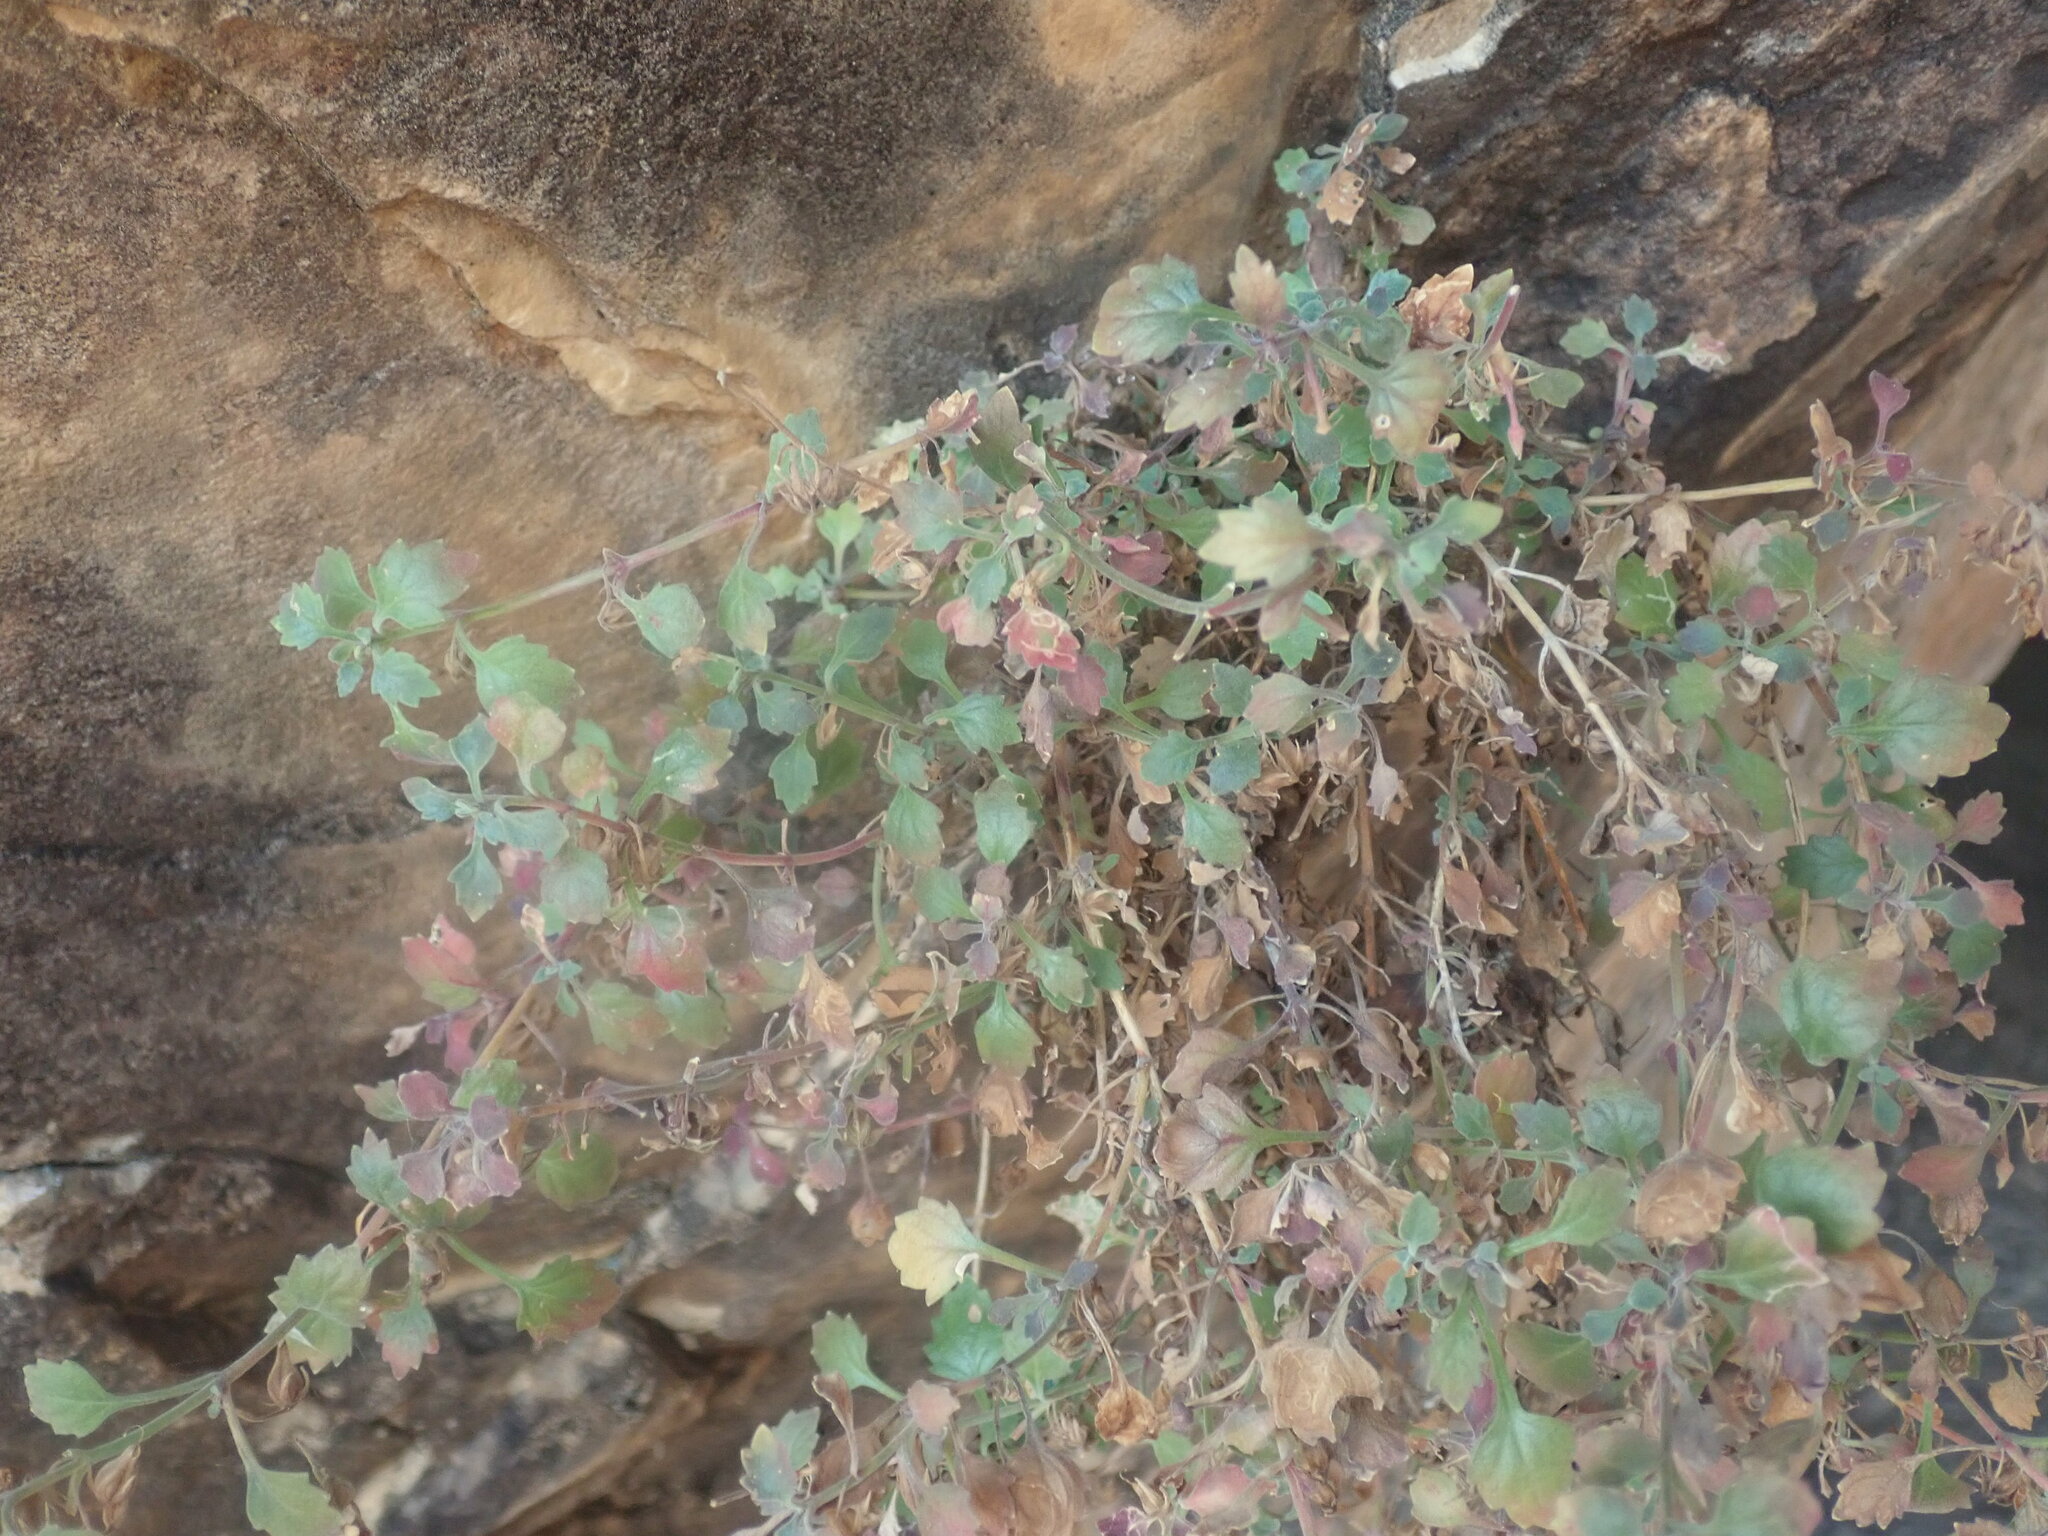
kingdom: Plantae
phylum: Tracheophyta
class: Magnoliopsida
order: Lamiales
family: Linderniaceae
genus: Stemodiopsis
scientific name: Stemodiopsis kamundii
